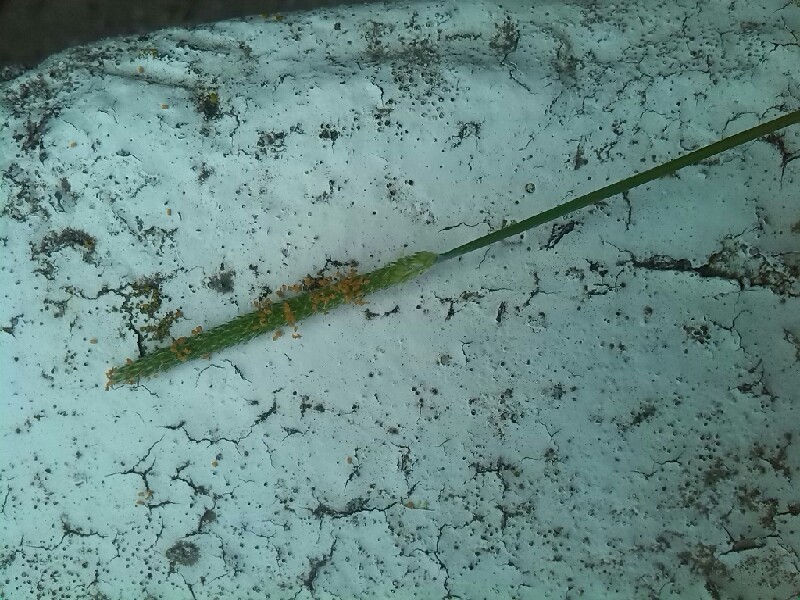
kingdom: Plantae
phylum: Tracheophyta
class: Liliopsida
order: Poales
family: Poaceae
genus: Alopecurus
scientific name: Alopecurus aequalis
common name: Orange foxtail
